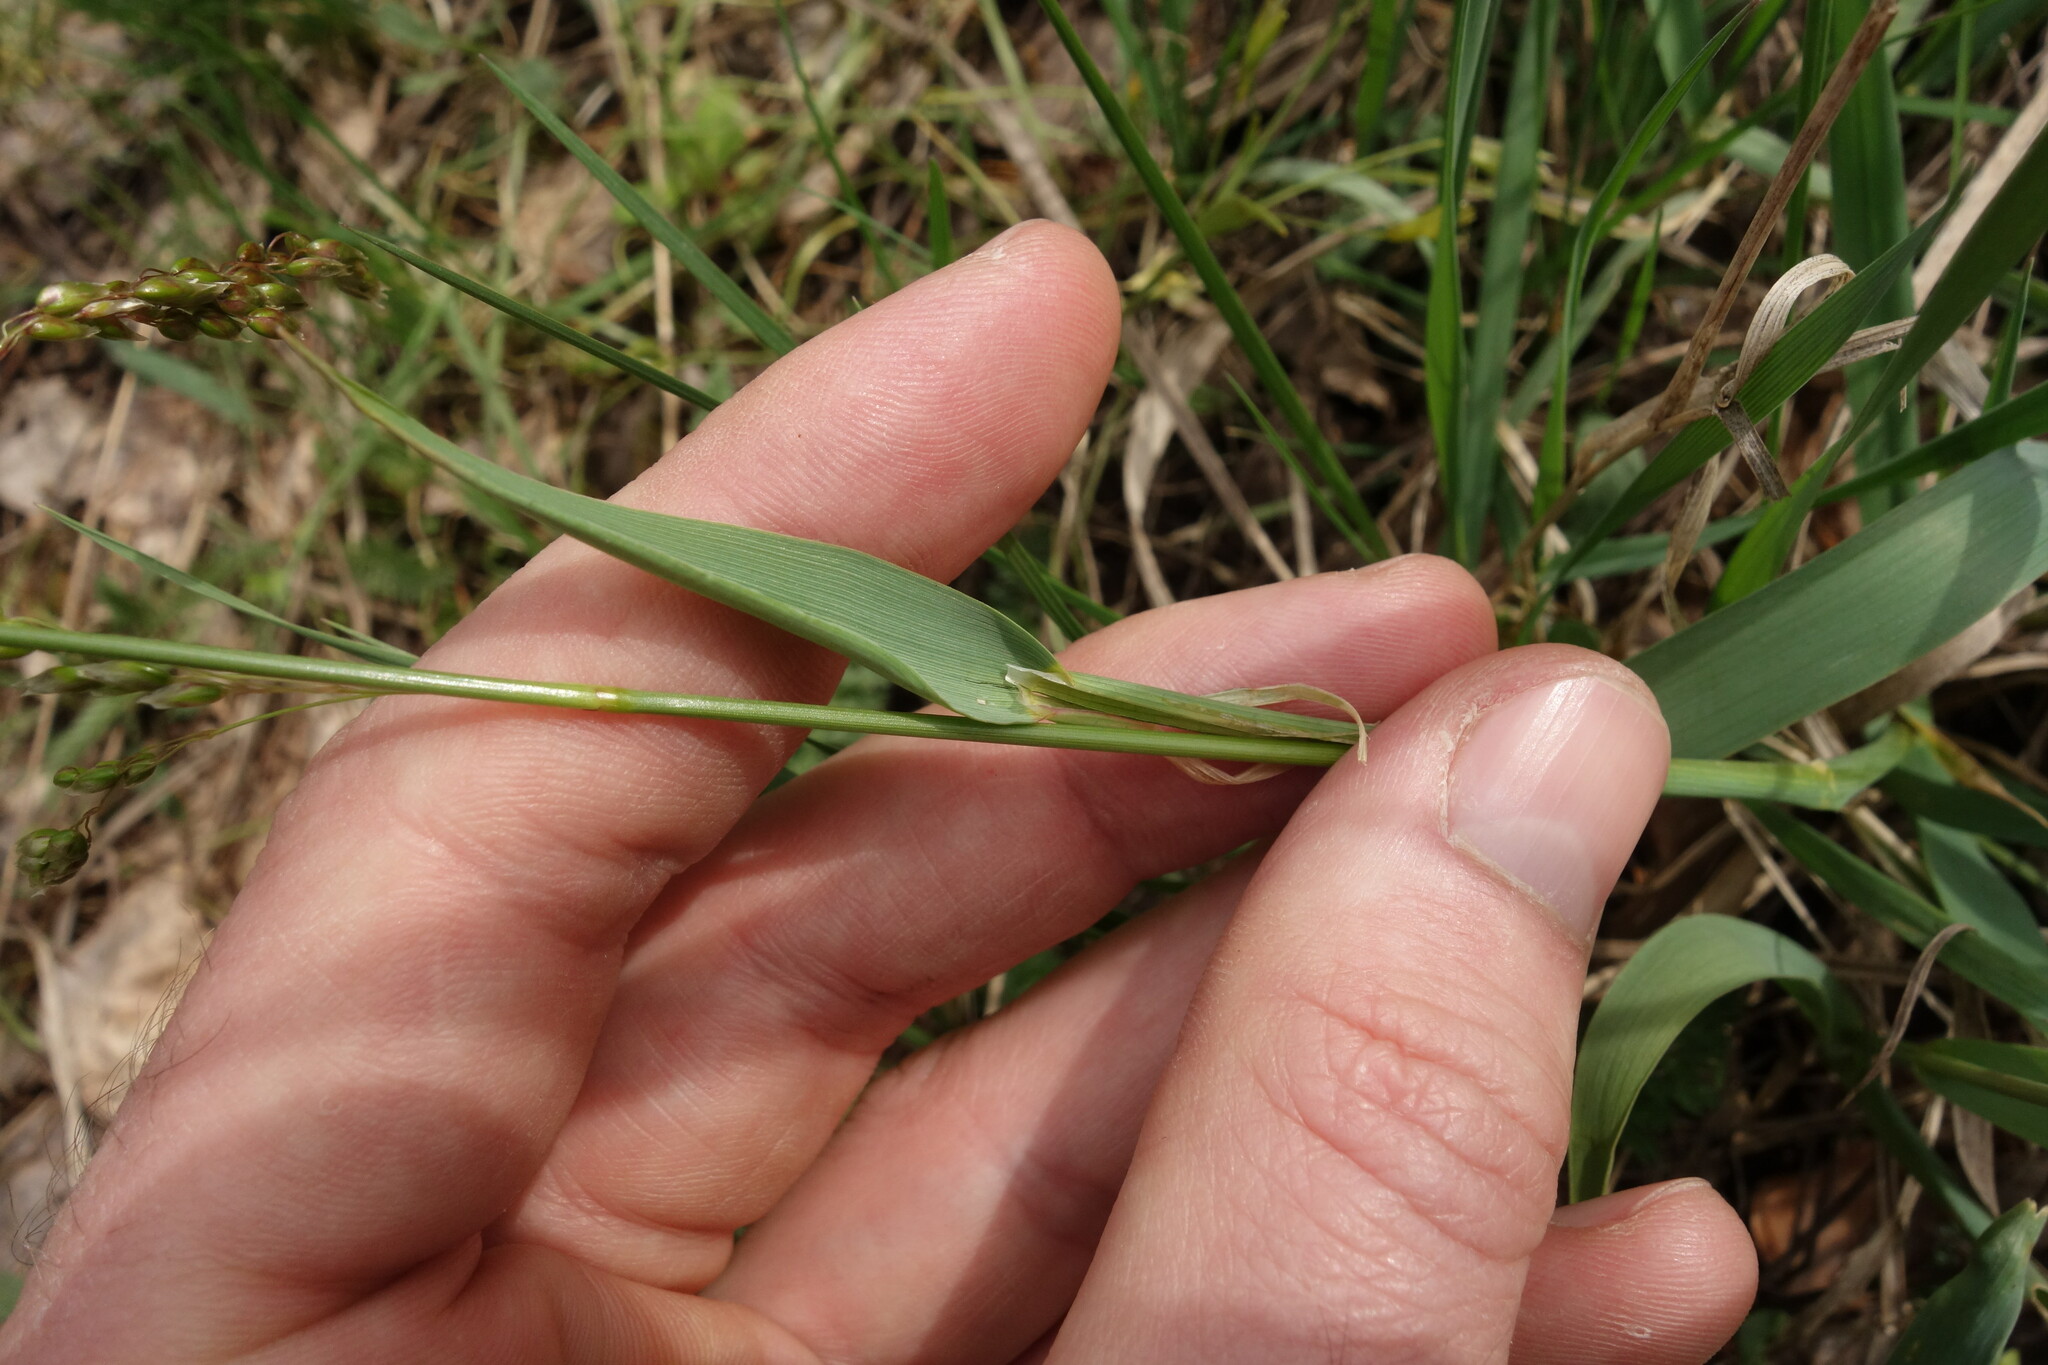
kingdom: Plantae
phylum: Tracheophyta
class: Liliopsida
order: Poales
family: Poaceae
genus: Anthoxanthum
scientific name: Anthoxanthum repens
